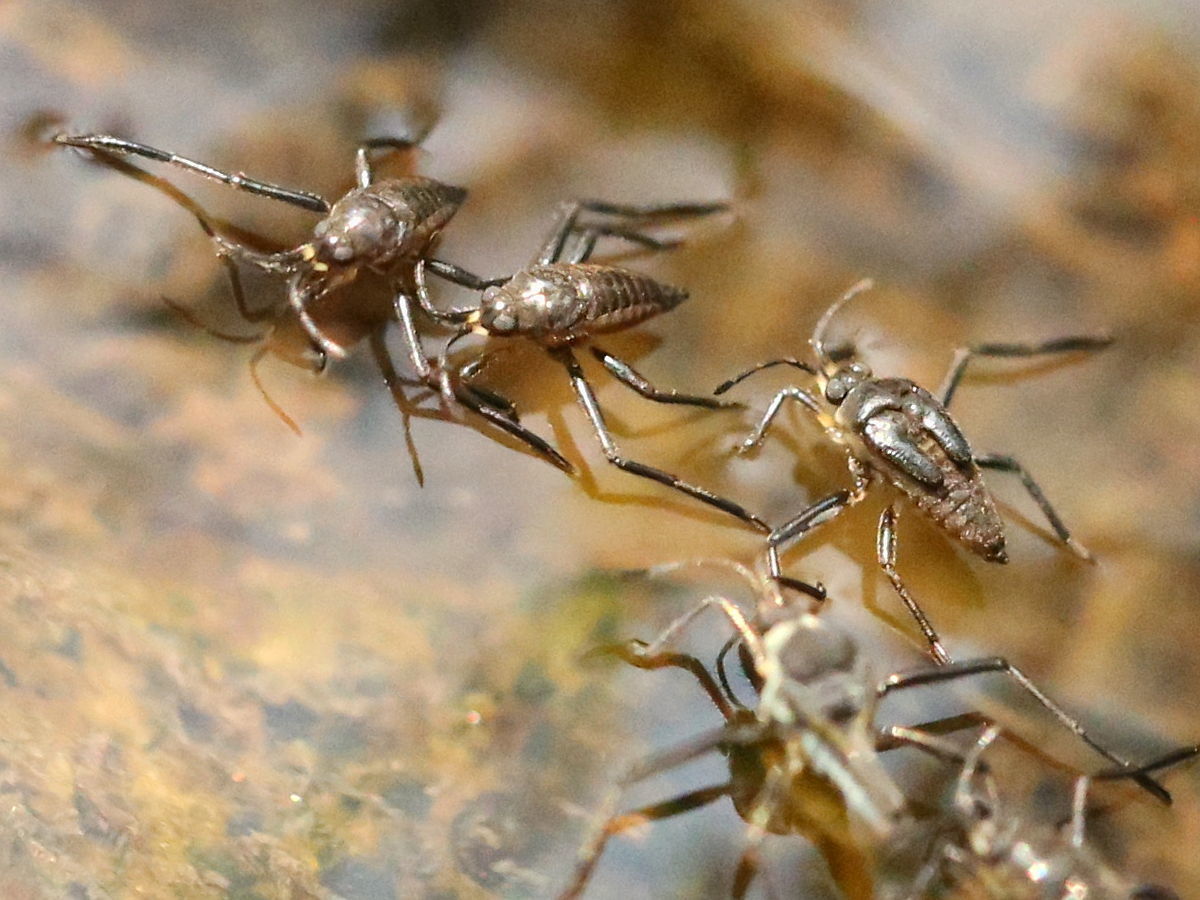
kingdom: Animalia
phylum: Arthropoda
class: Insecta
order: Hemiptera
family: Veliidae
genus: Rhagovelia
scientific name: Rhagovelia
